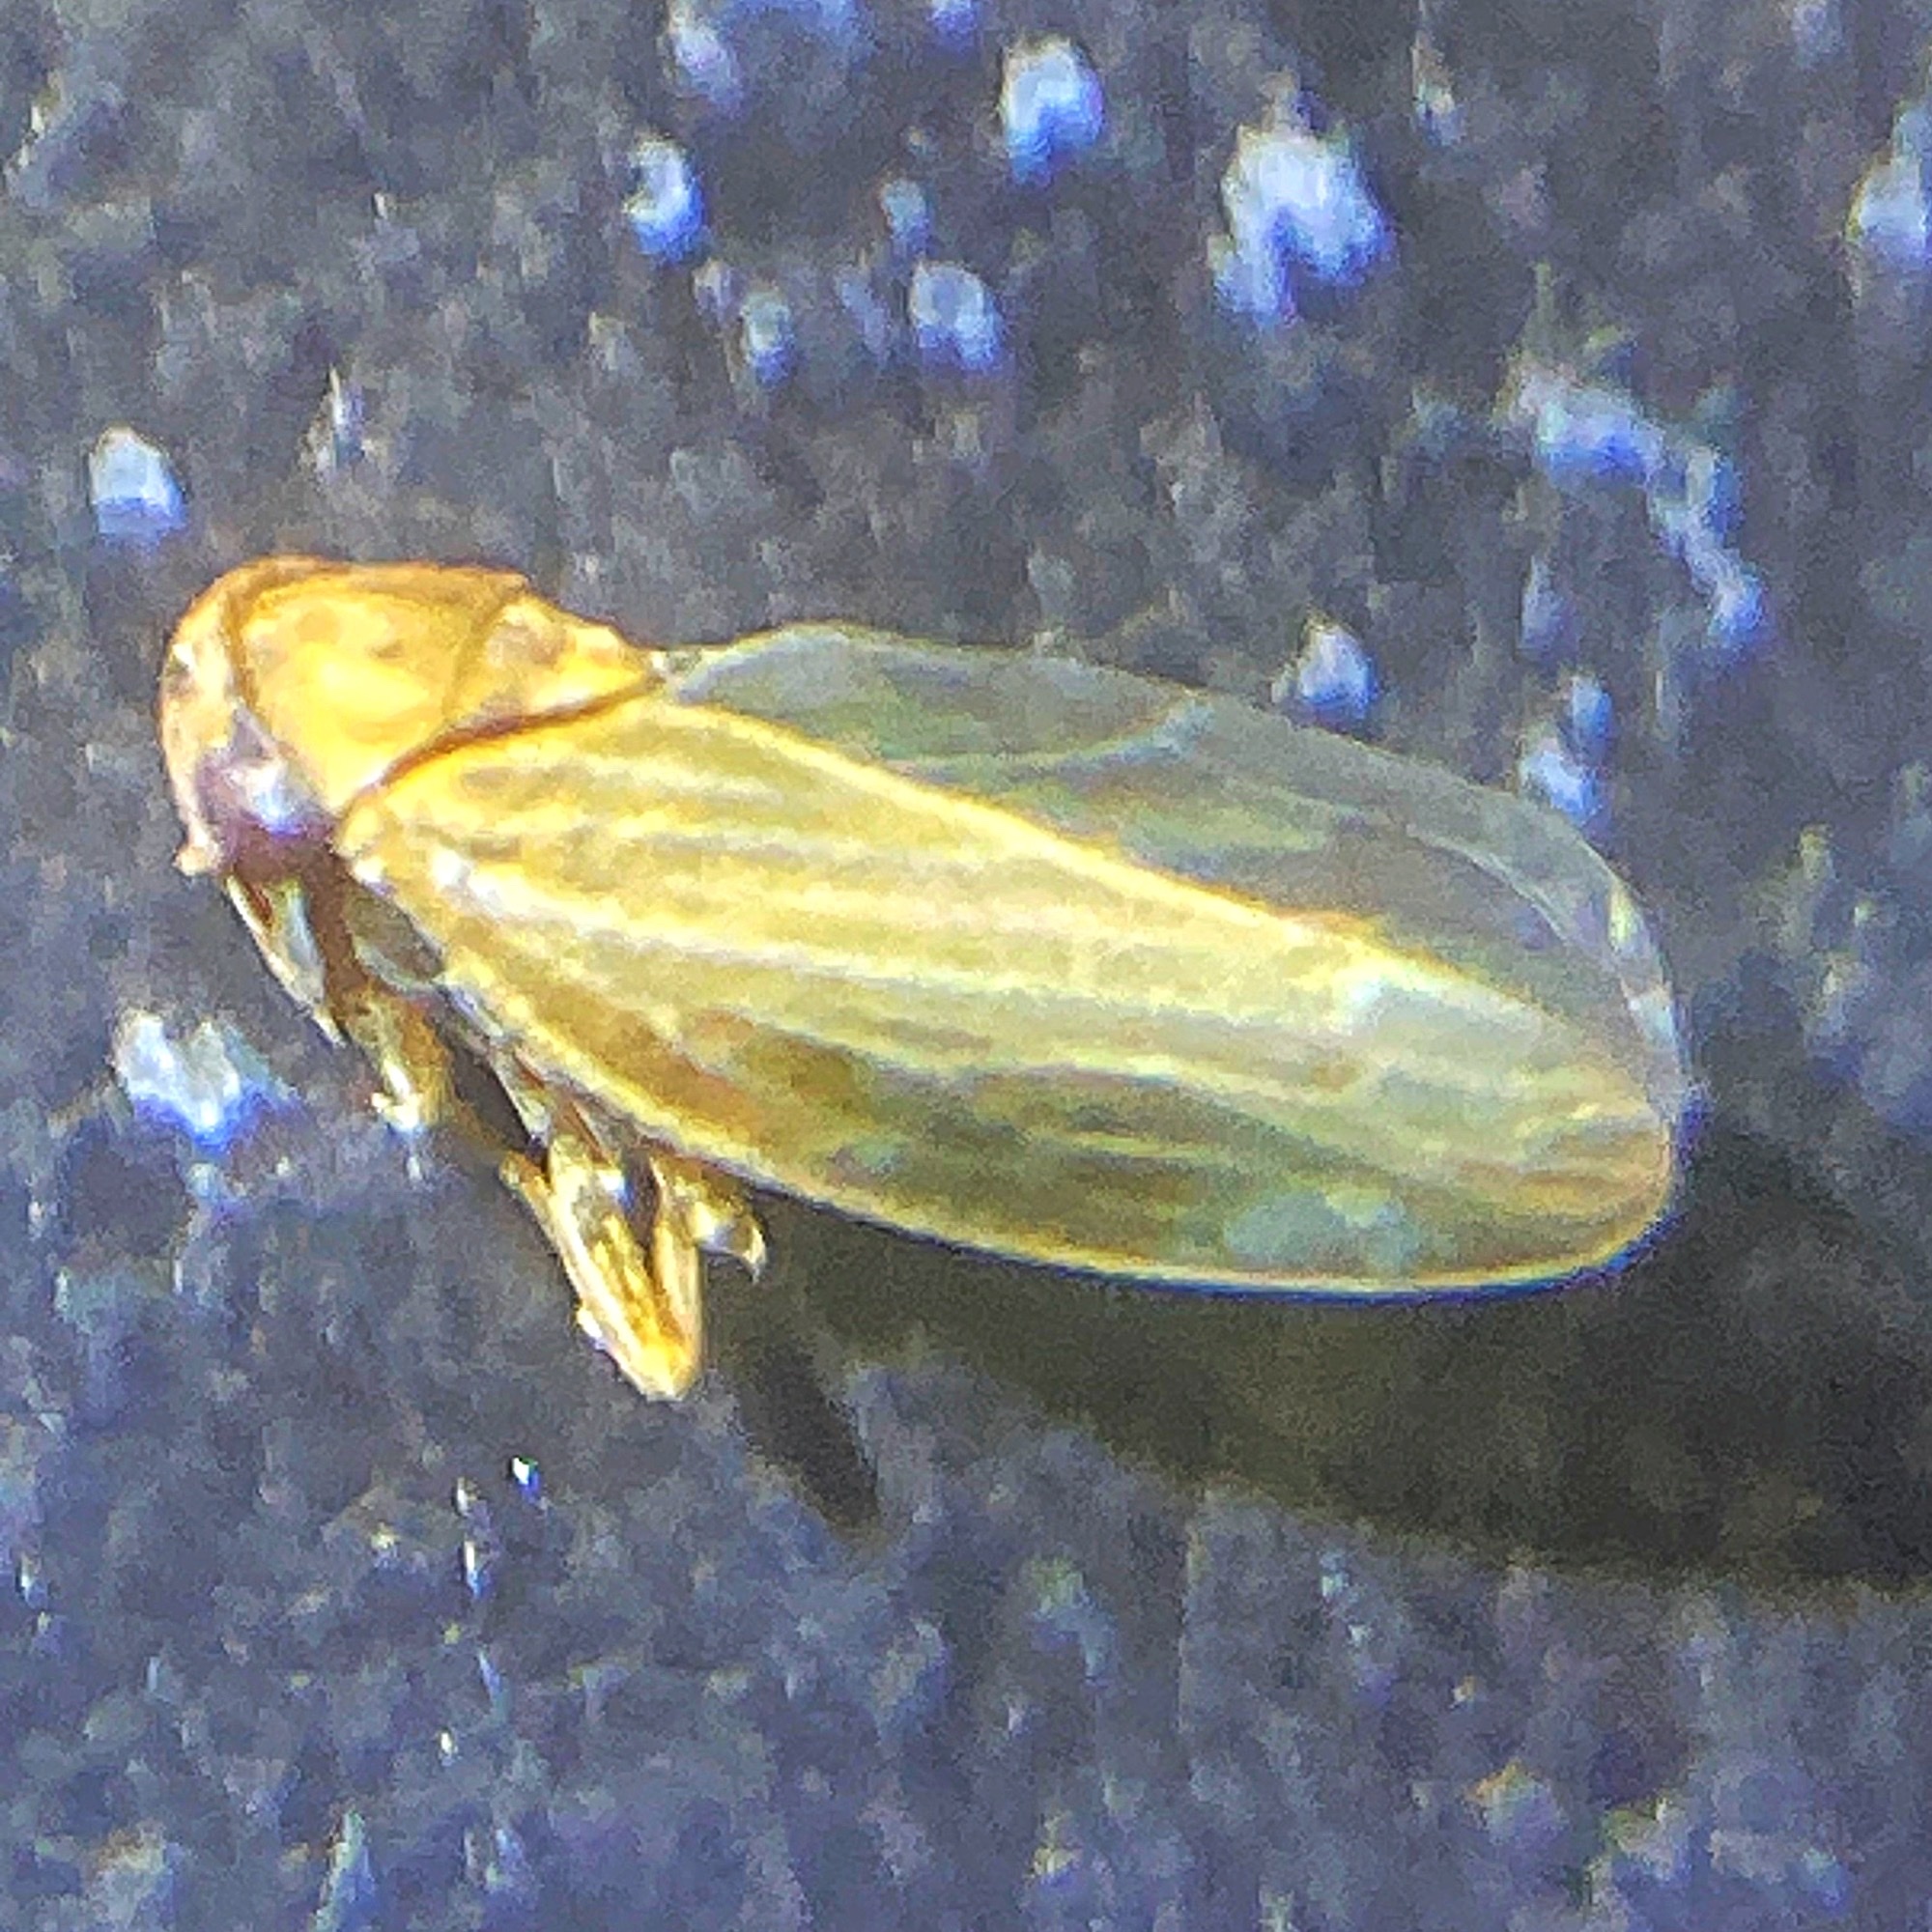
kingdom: Animalia
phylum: Arthropoda
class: Insecta
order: Hemiptera
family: Cicadellidae
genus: Agallia
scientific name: Agallia constricta
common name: The constricted leafhopper
